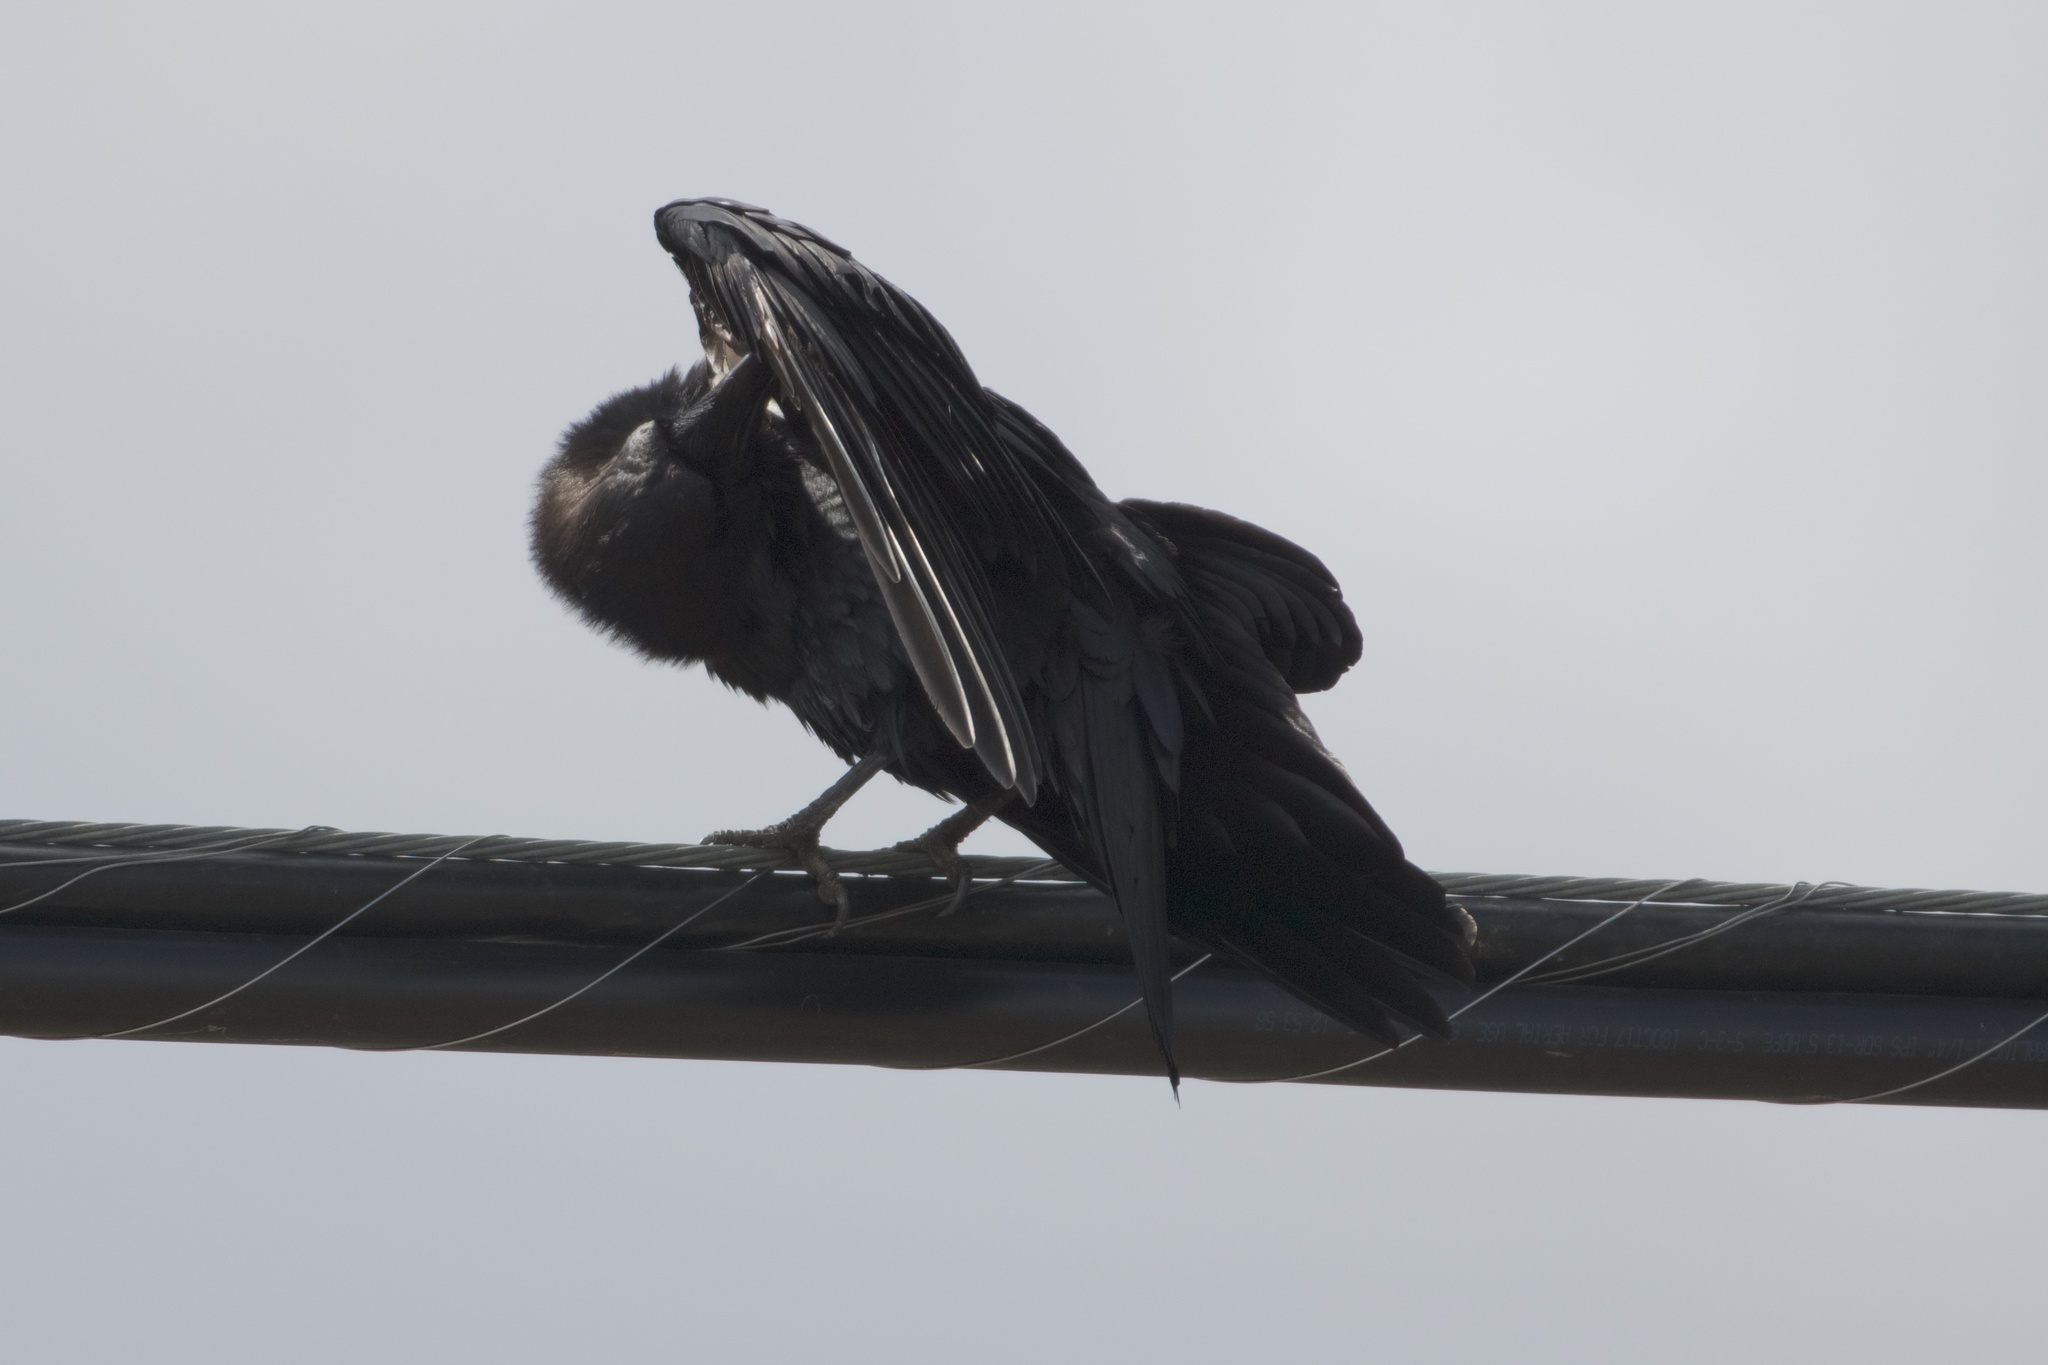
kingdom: Animalia
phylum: Chordata
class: Aves
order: Passeriformes
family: Corvidae
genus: Corvus
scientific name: Corvus corax
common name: Common raven
